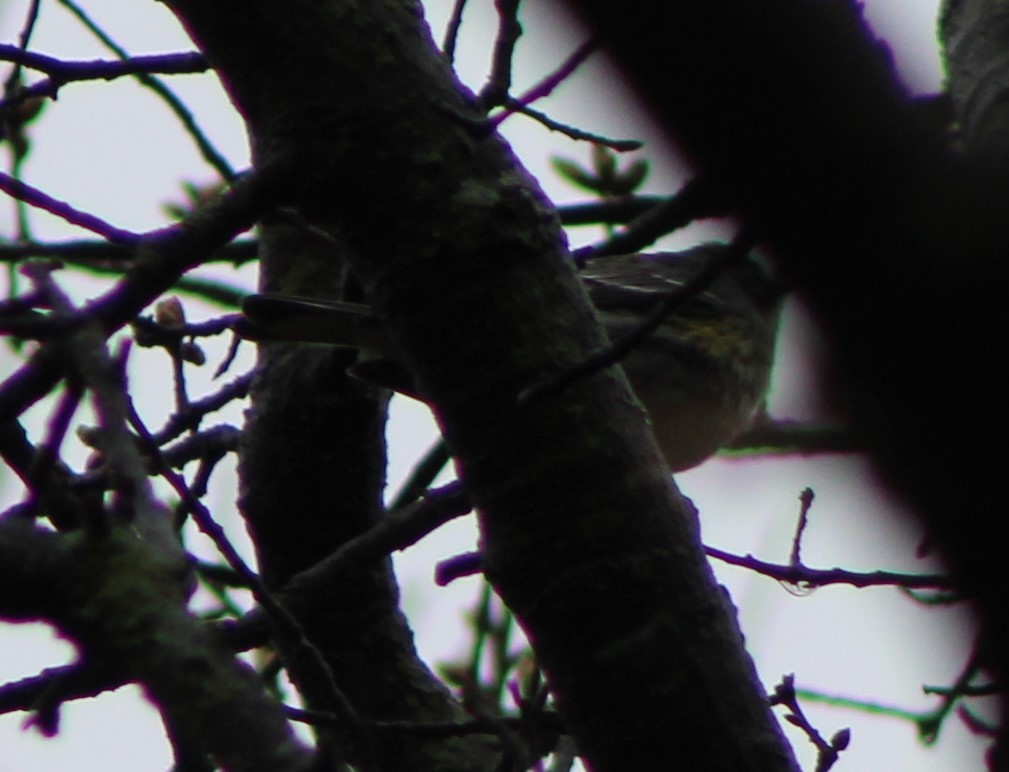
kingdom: Animalia
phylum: Chordata
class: Aves
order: Passeriformes
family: Parulidae
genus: Setophaga
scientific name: Setophaga coronata
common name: Myrtle warbler
